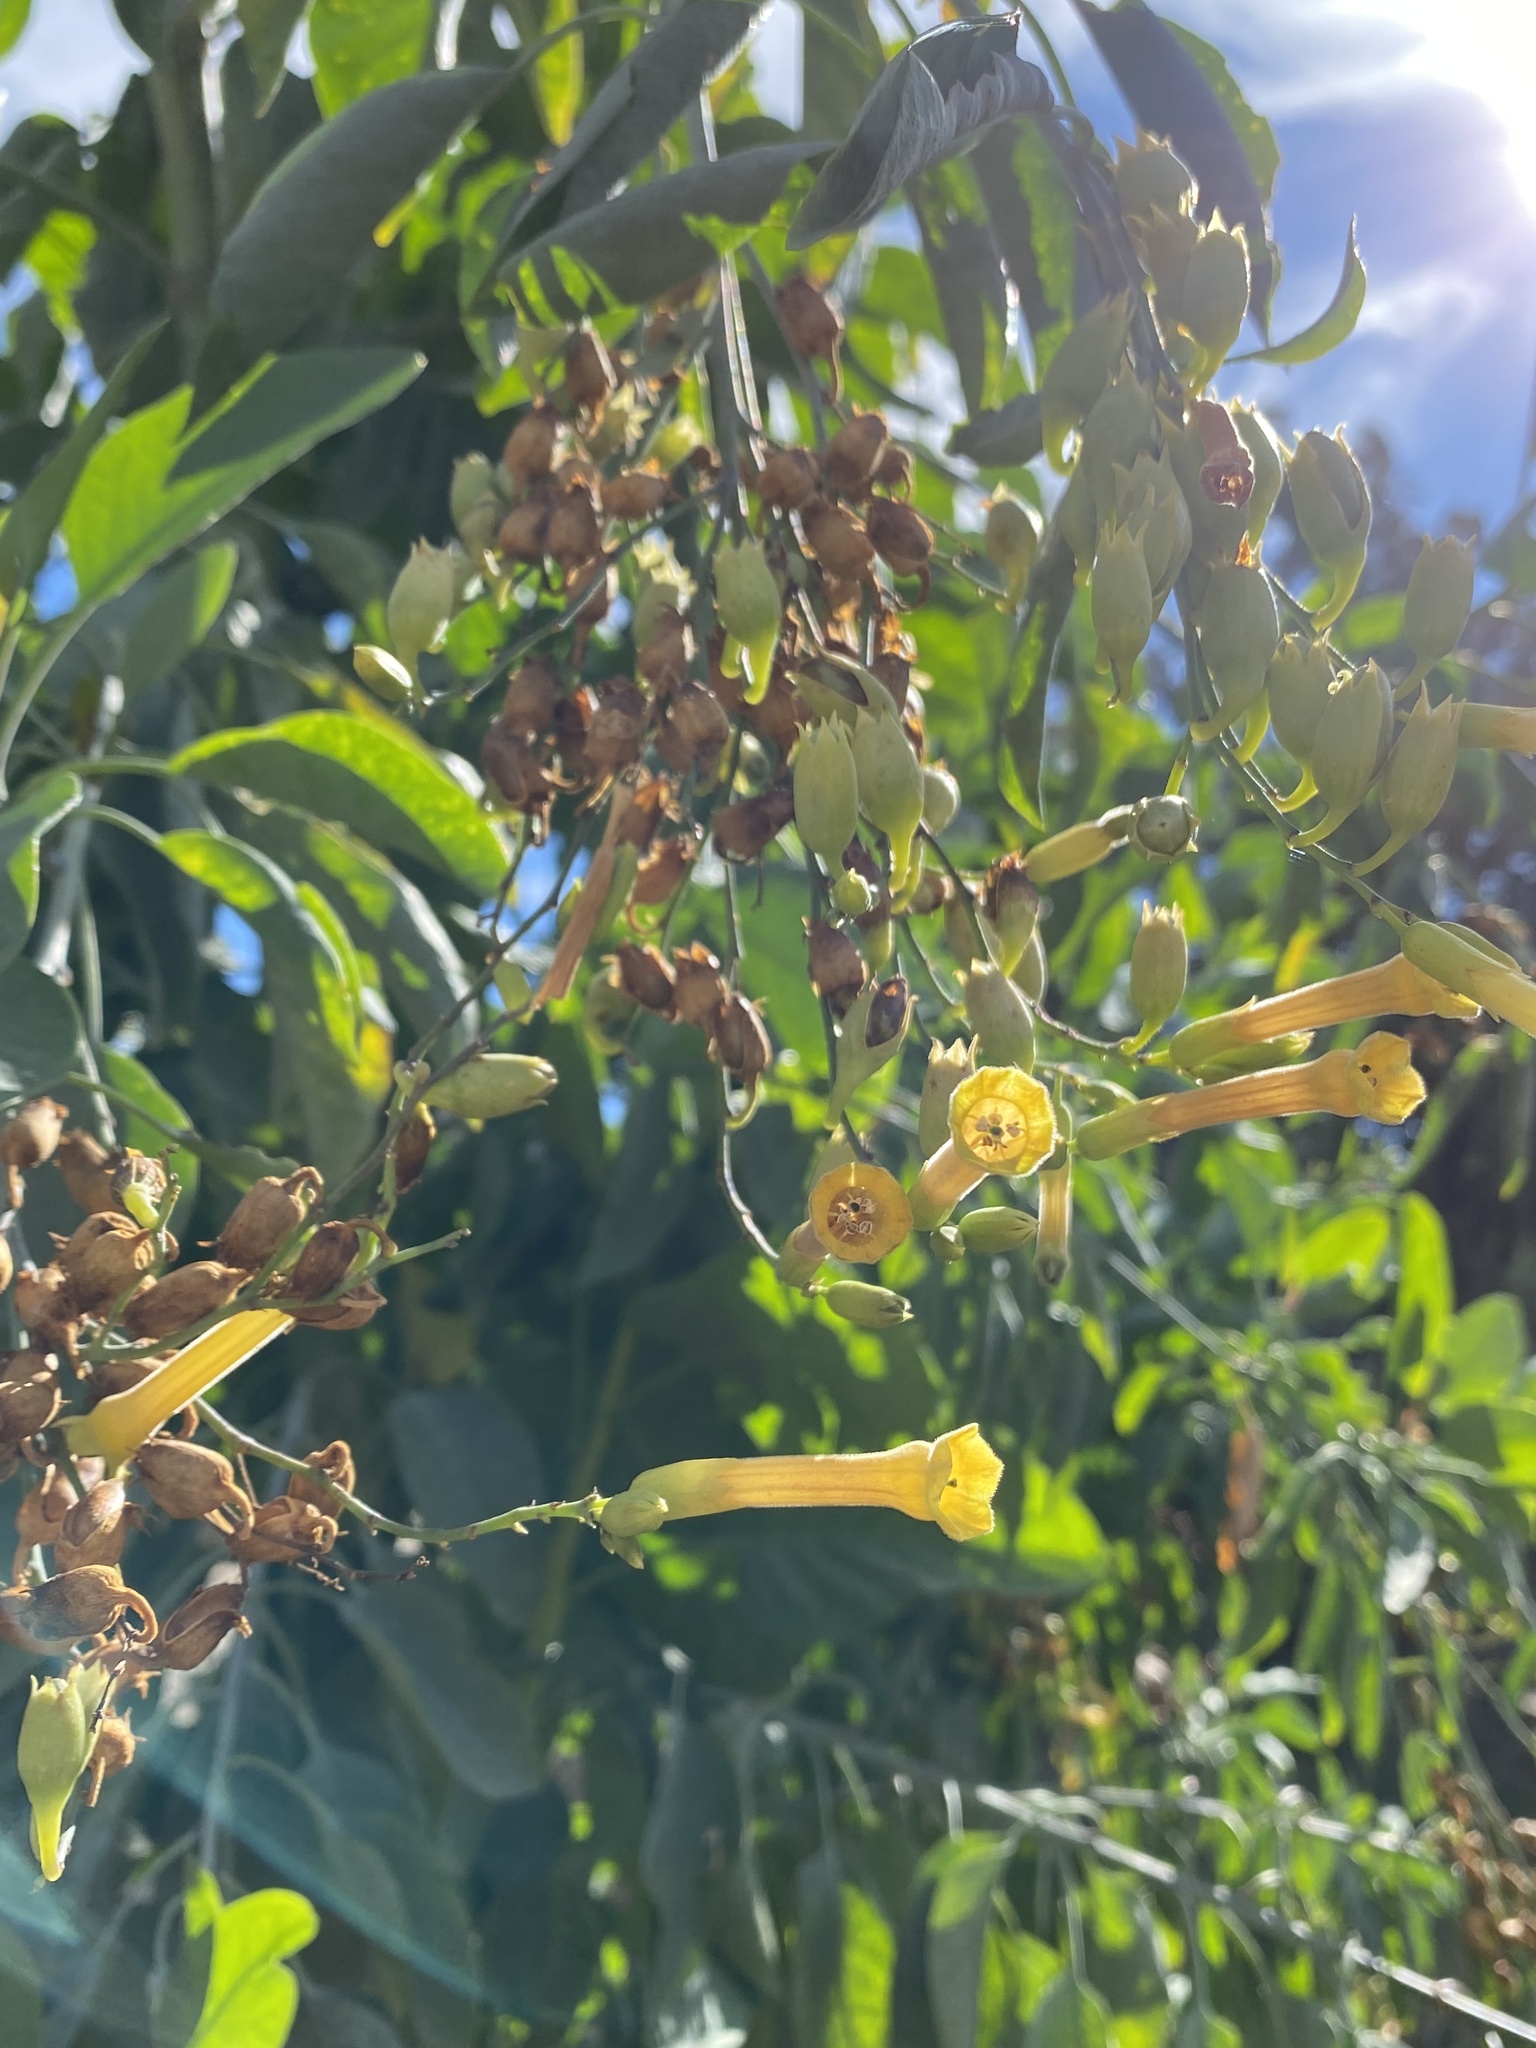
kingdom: Plantae
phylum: Tracheophyta
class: Magnoliopsida
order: Solanales
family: Solanaceae
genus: Nicotiana
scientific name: Nicotiana glauca
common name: Tree tobacco
